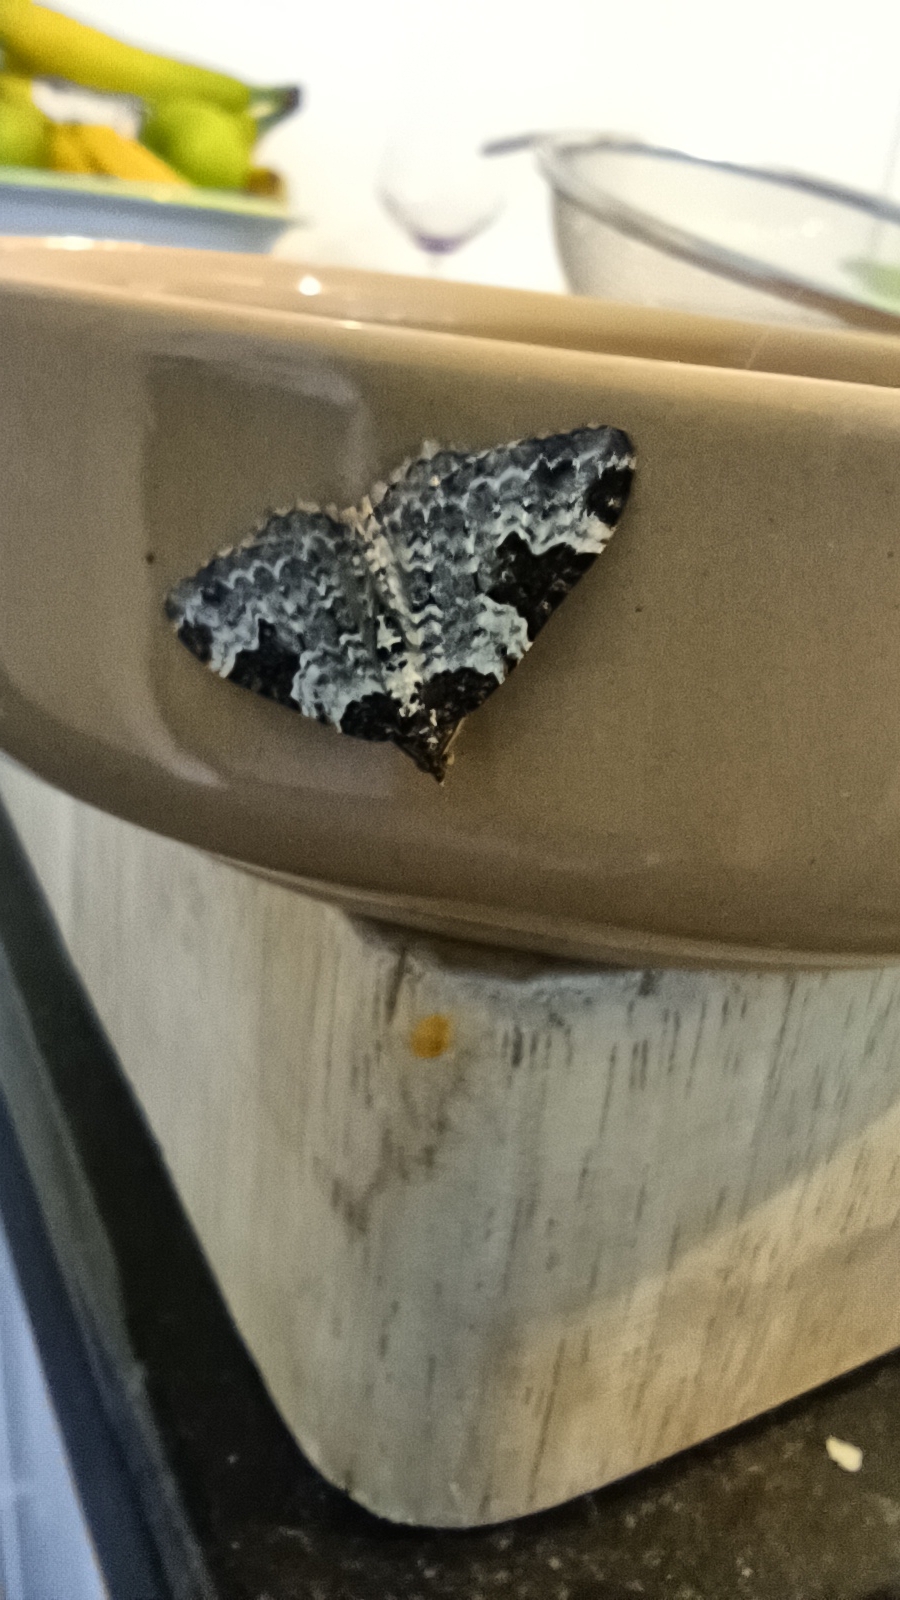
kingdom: Animalia
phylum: Arthropoda
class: Insecta
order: Lepidoptera
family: Geometridae
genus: Xanthorhoe
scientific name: Xanthorhoe fluctuata
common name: Garden carpet
